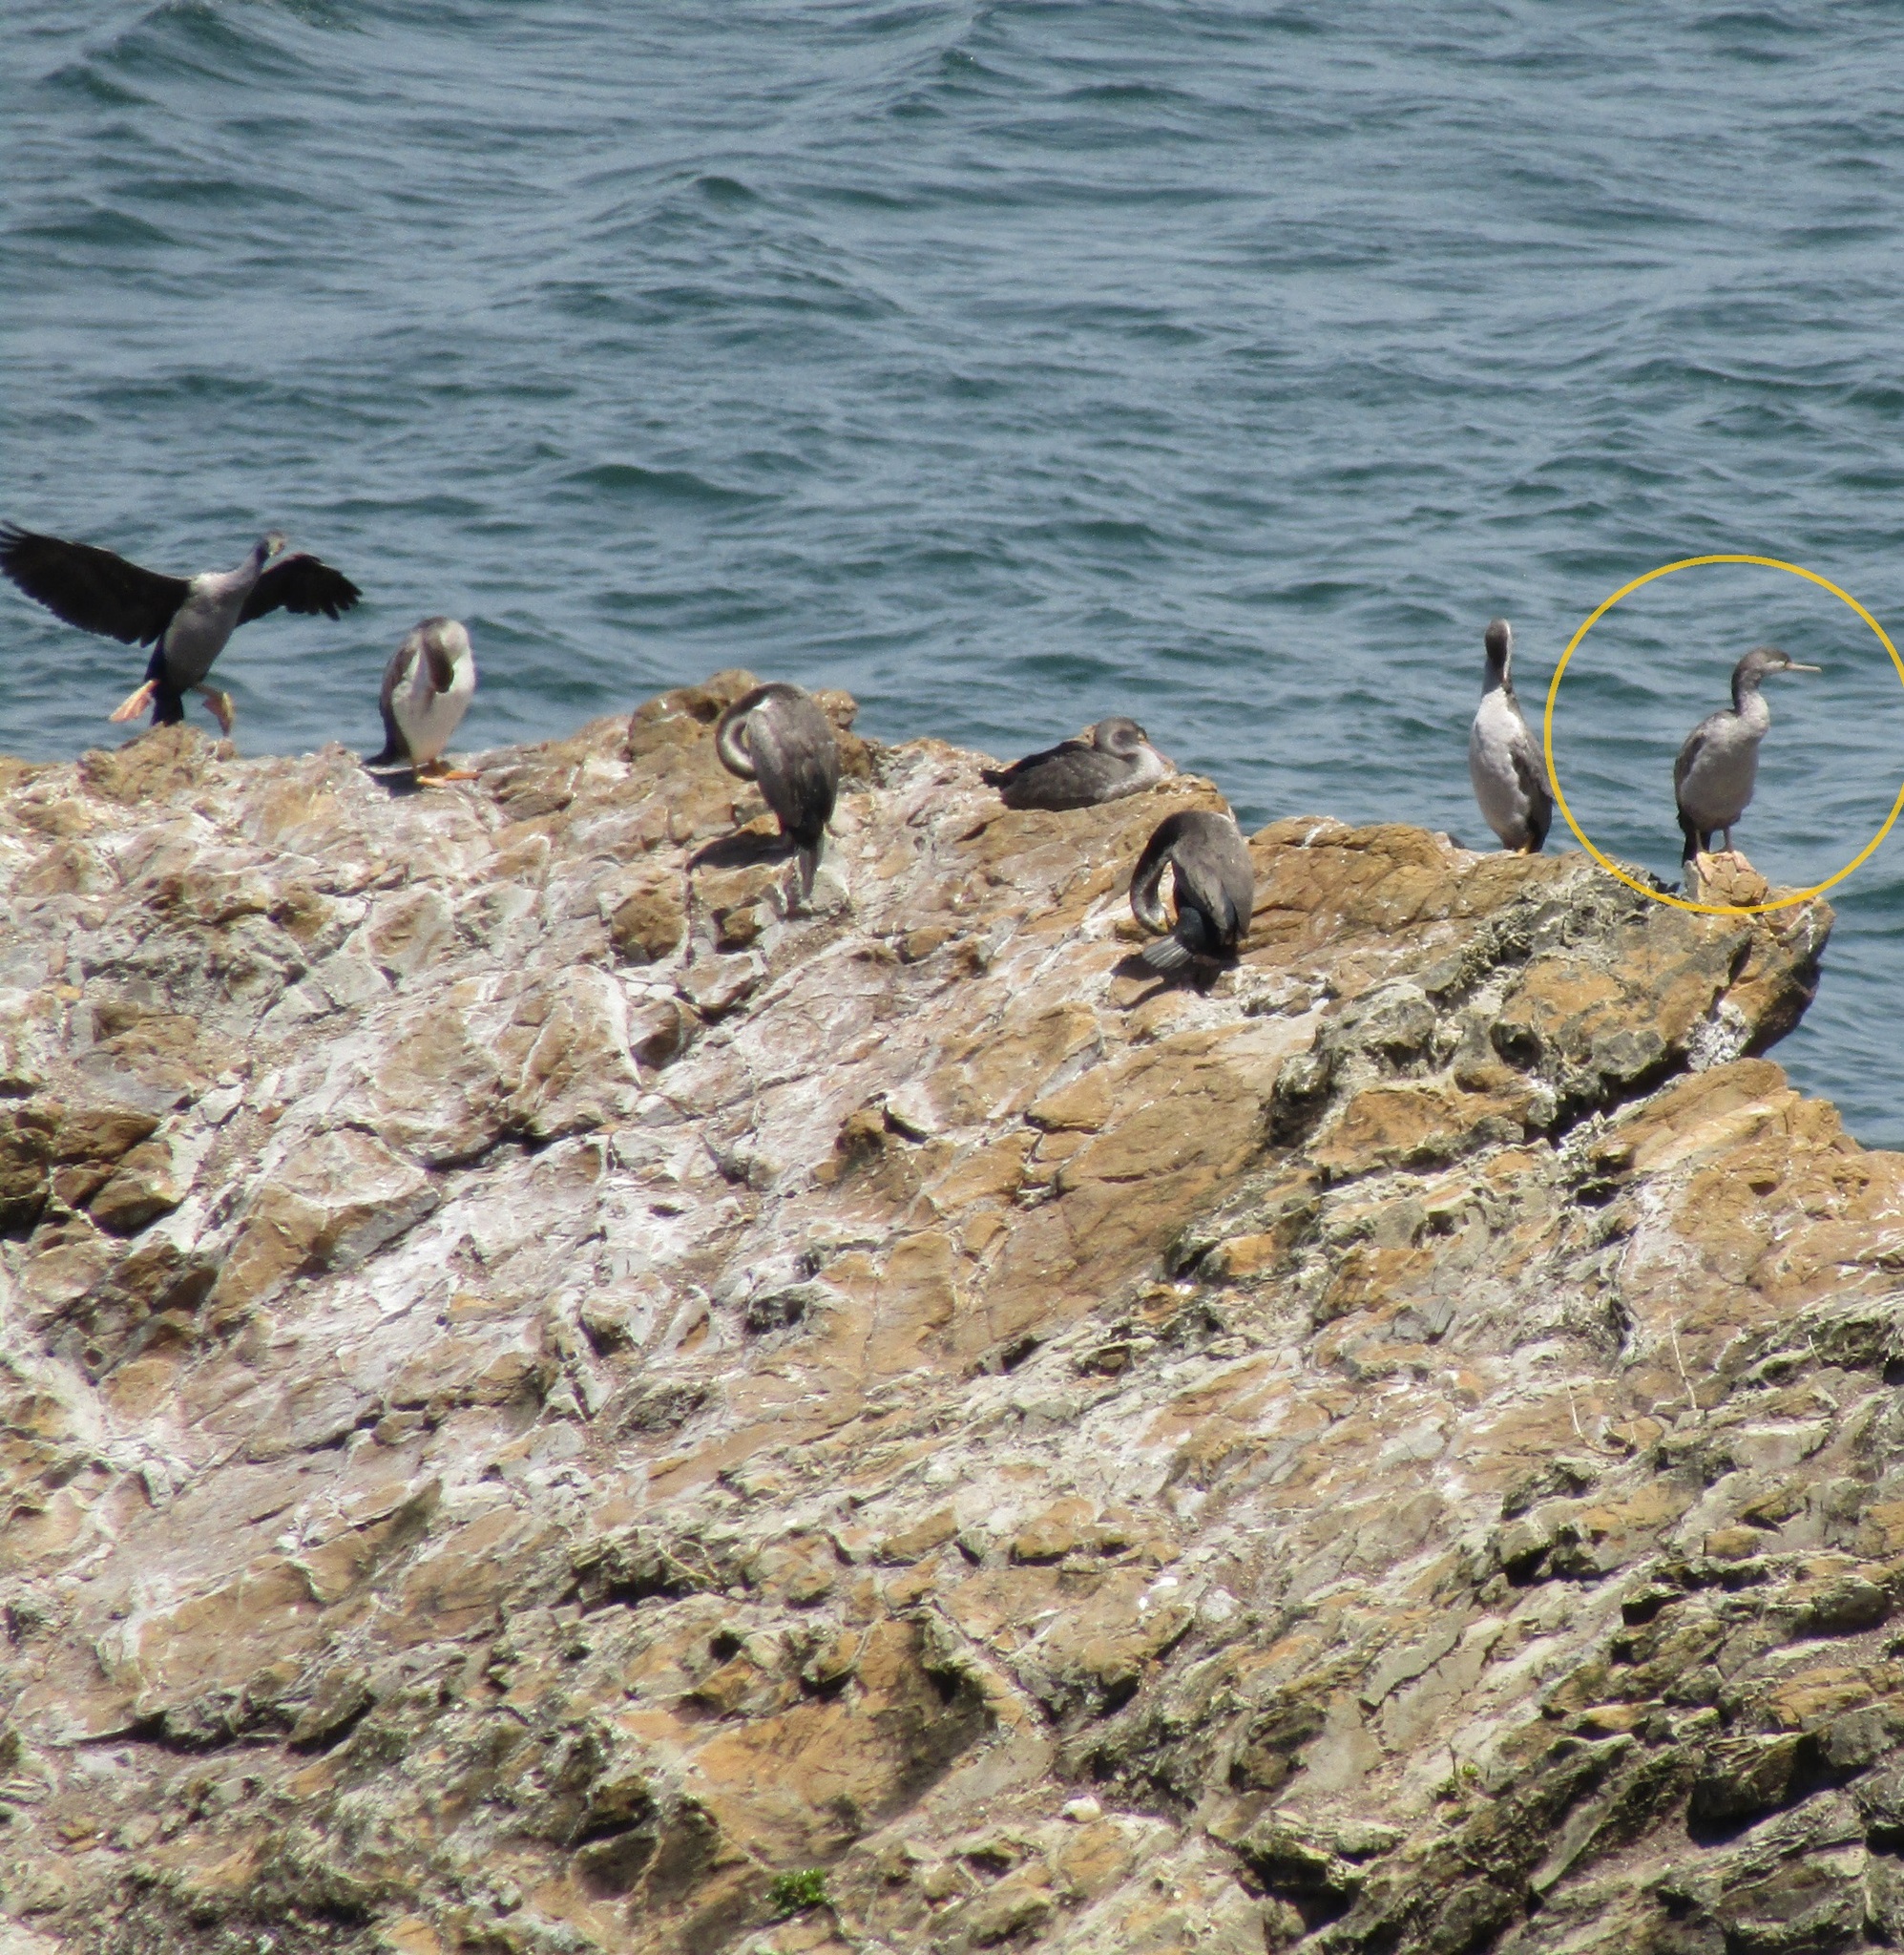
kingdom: Animalia
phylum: Chordata
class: Aves
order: Suliformes
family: Phalacrocoracidae
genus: Phalacrocorax
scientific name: Phalacrocorax punctatus
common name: Spotted shag
